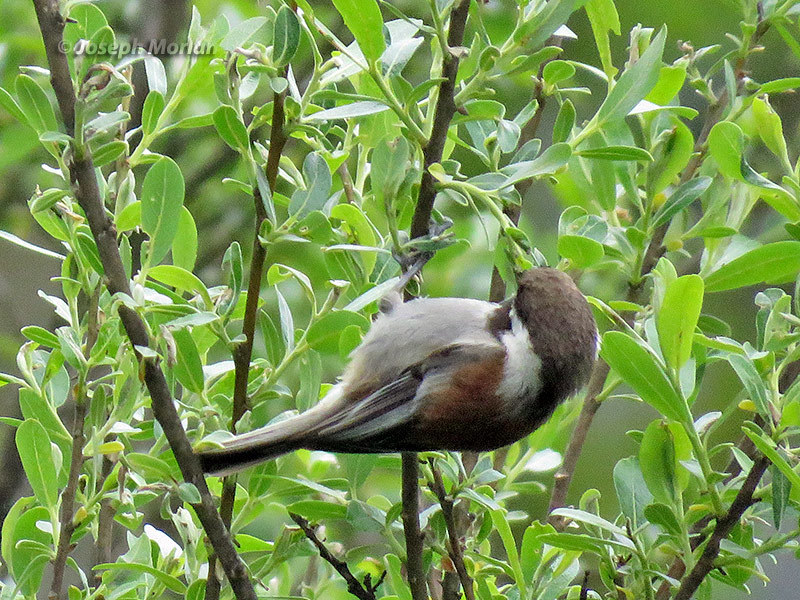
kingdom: Animalia
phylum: Chordata
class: Aves
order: Passeriformes
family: Paridae
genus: Poecile
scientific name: Poecile rufescens
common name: Chestnut-backed chickadee
